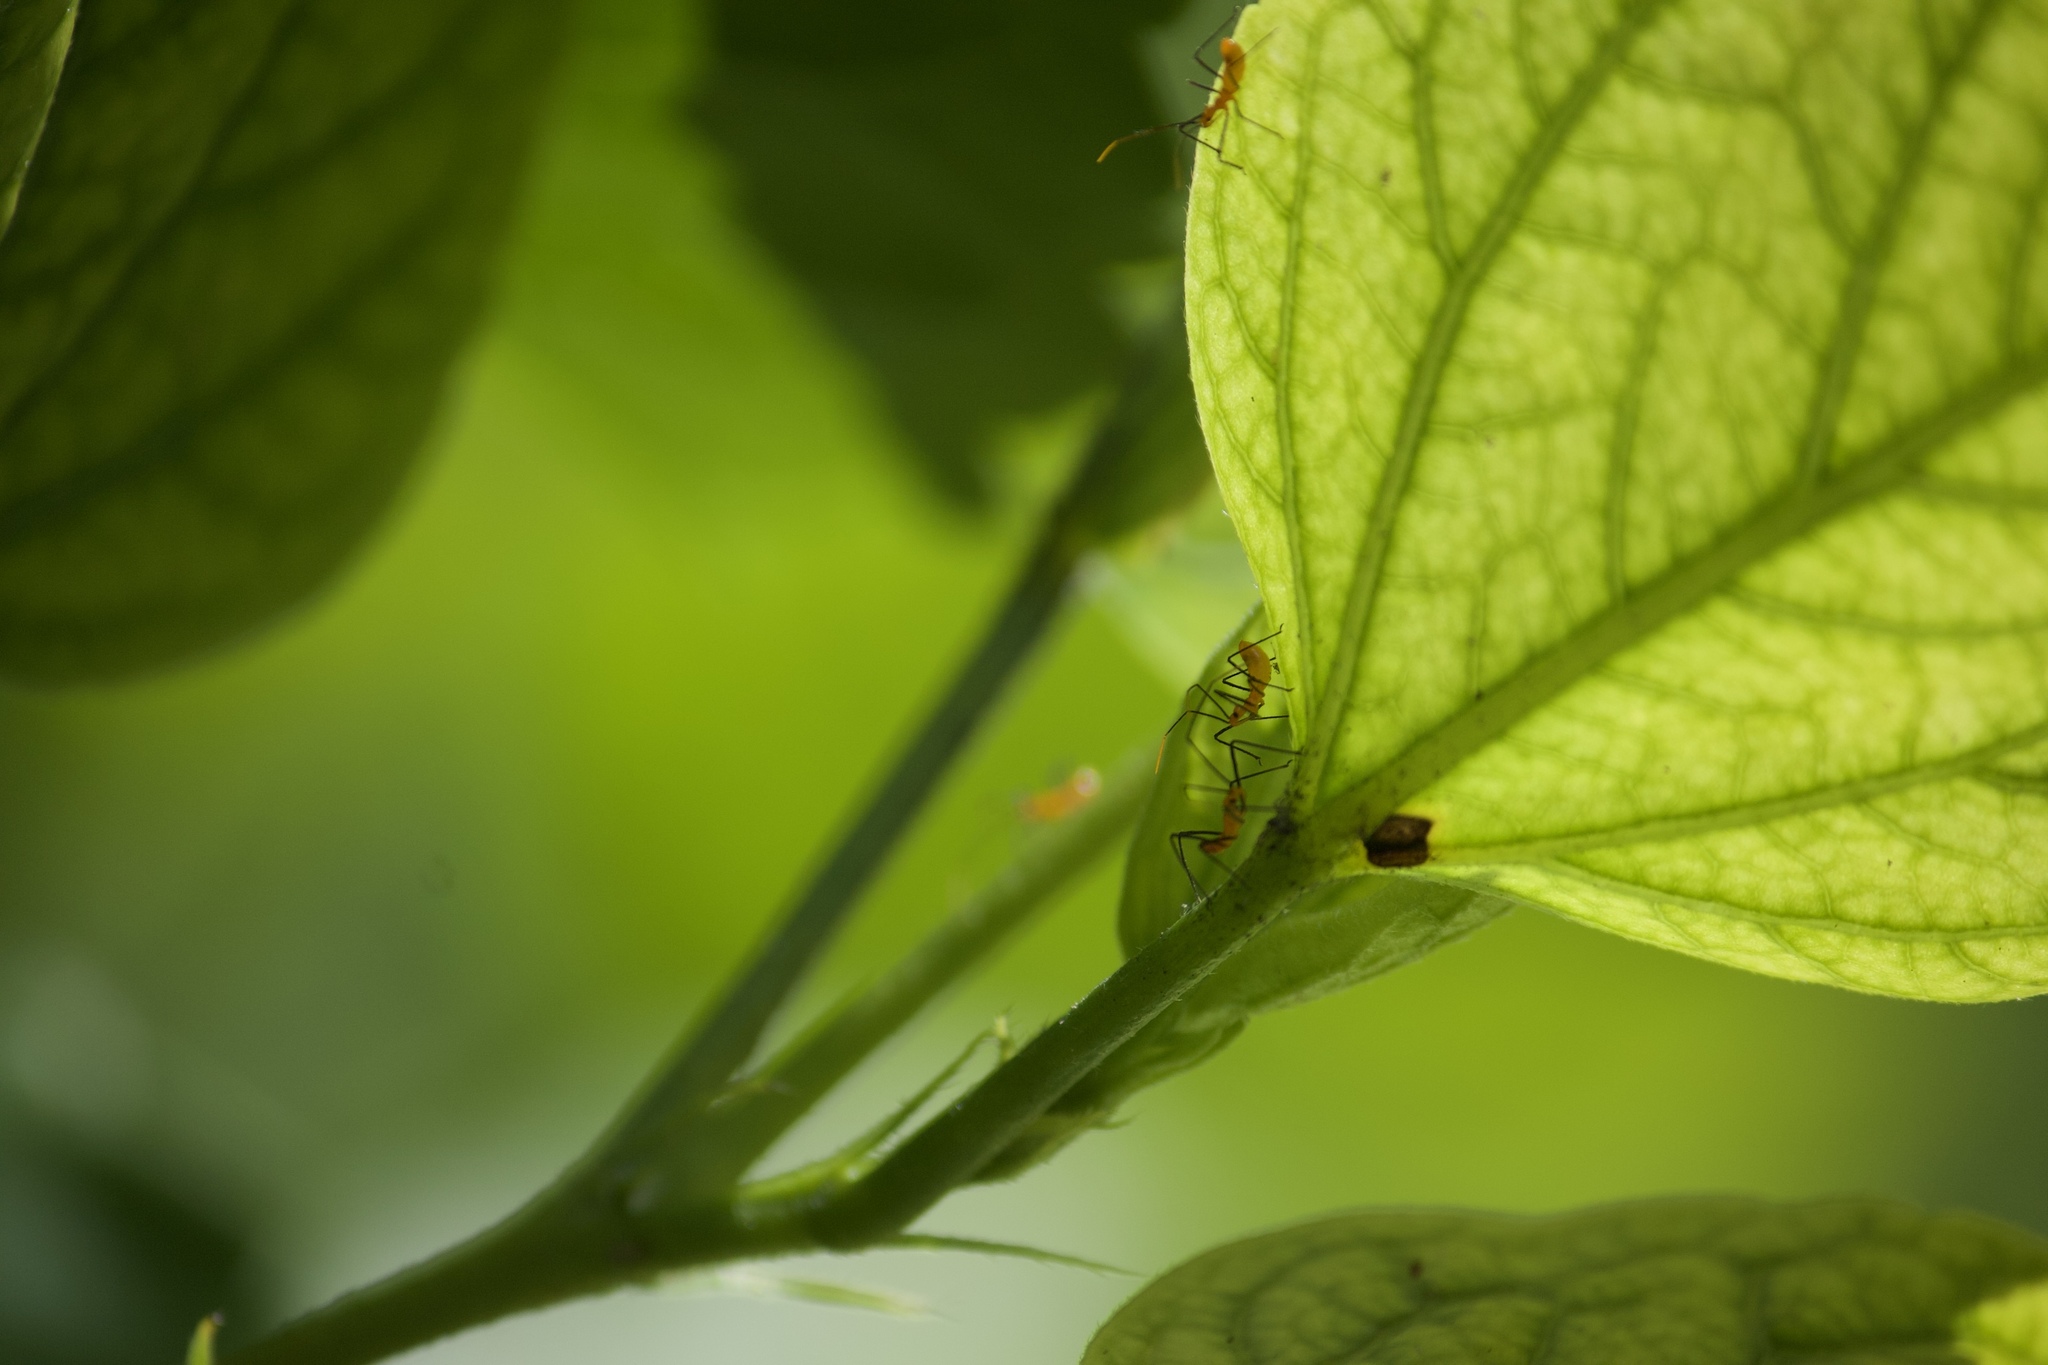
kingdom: Animalia
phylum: Arthropoda
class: Insecta
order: Hemiptera
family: Reduviidae
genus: Zelus
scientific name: Zelus longipes
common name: Milkweed assassin bug
